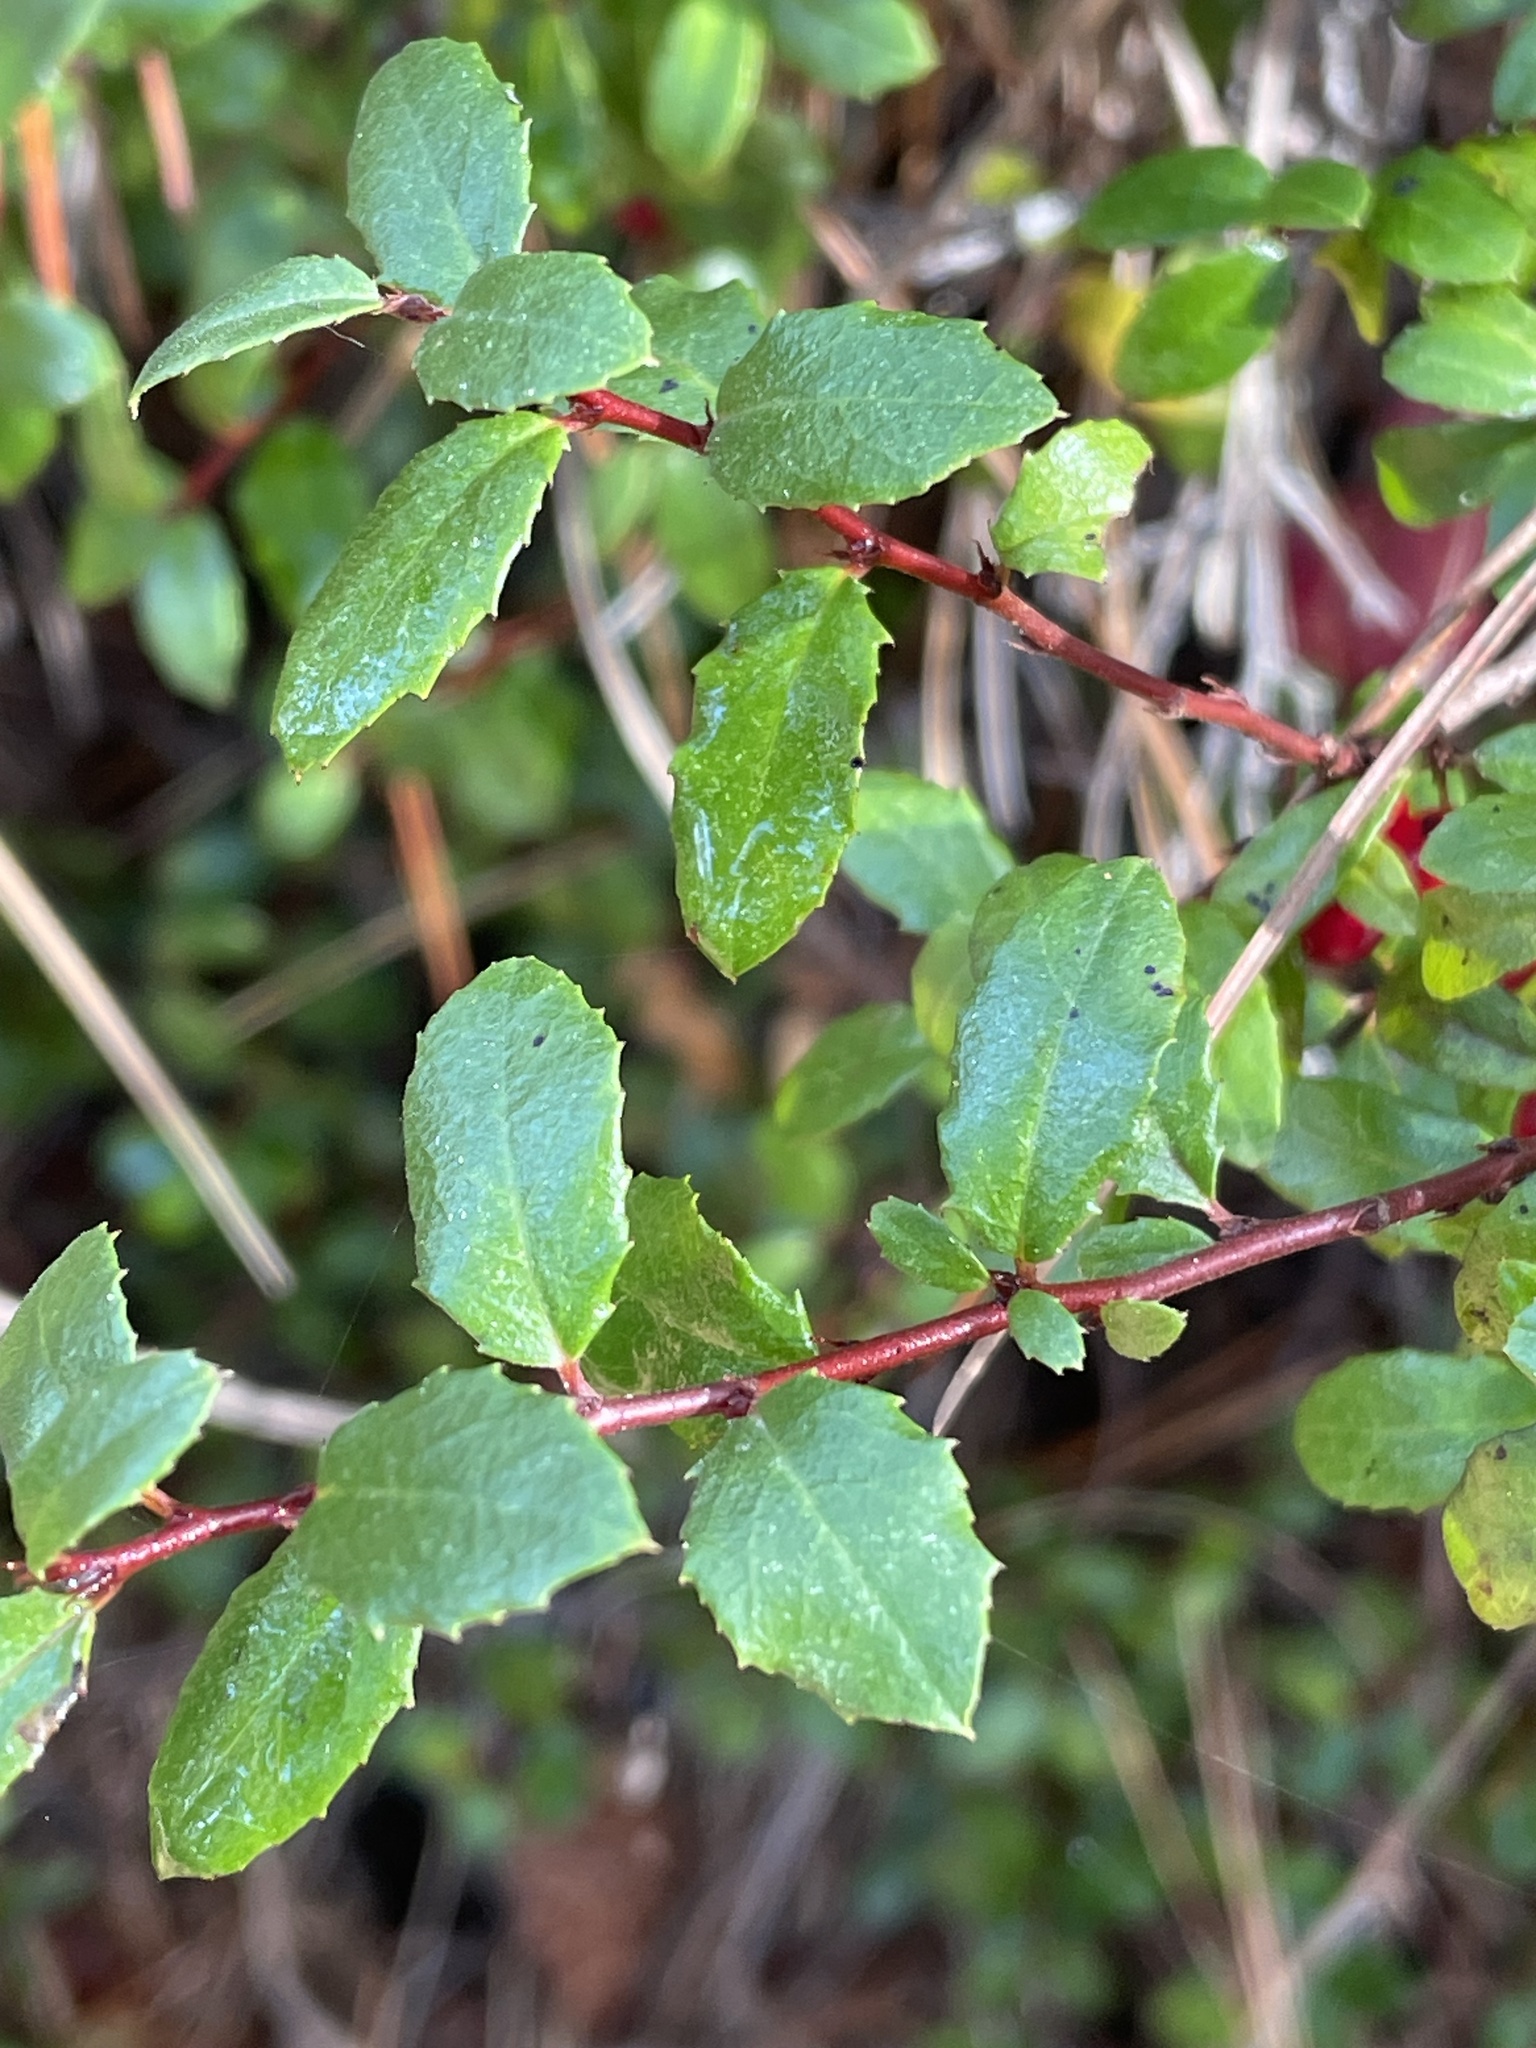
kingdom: Plantae
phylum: Tracheophyta
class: Magnoliopsida
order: Rosales
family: Rhamnaceae
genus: Endotropis
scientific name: Endotropis crocea
